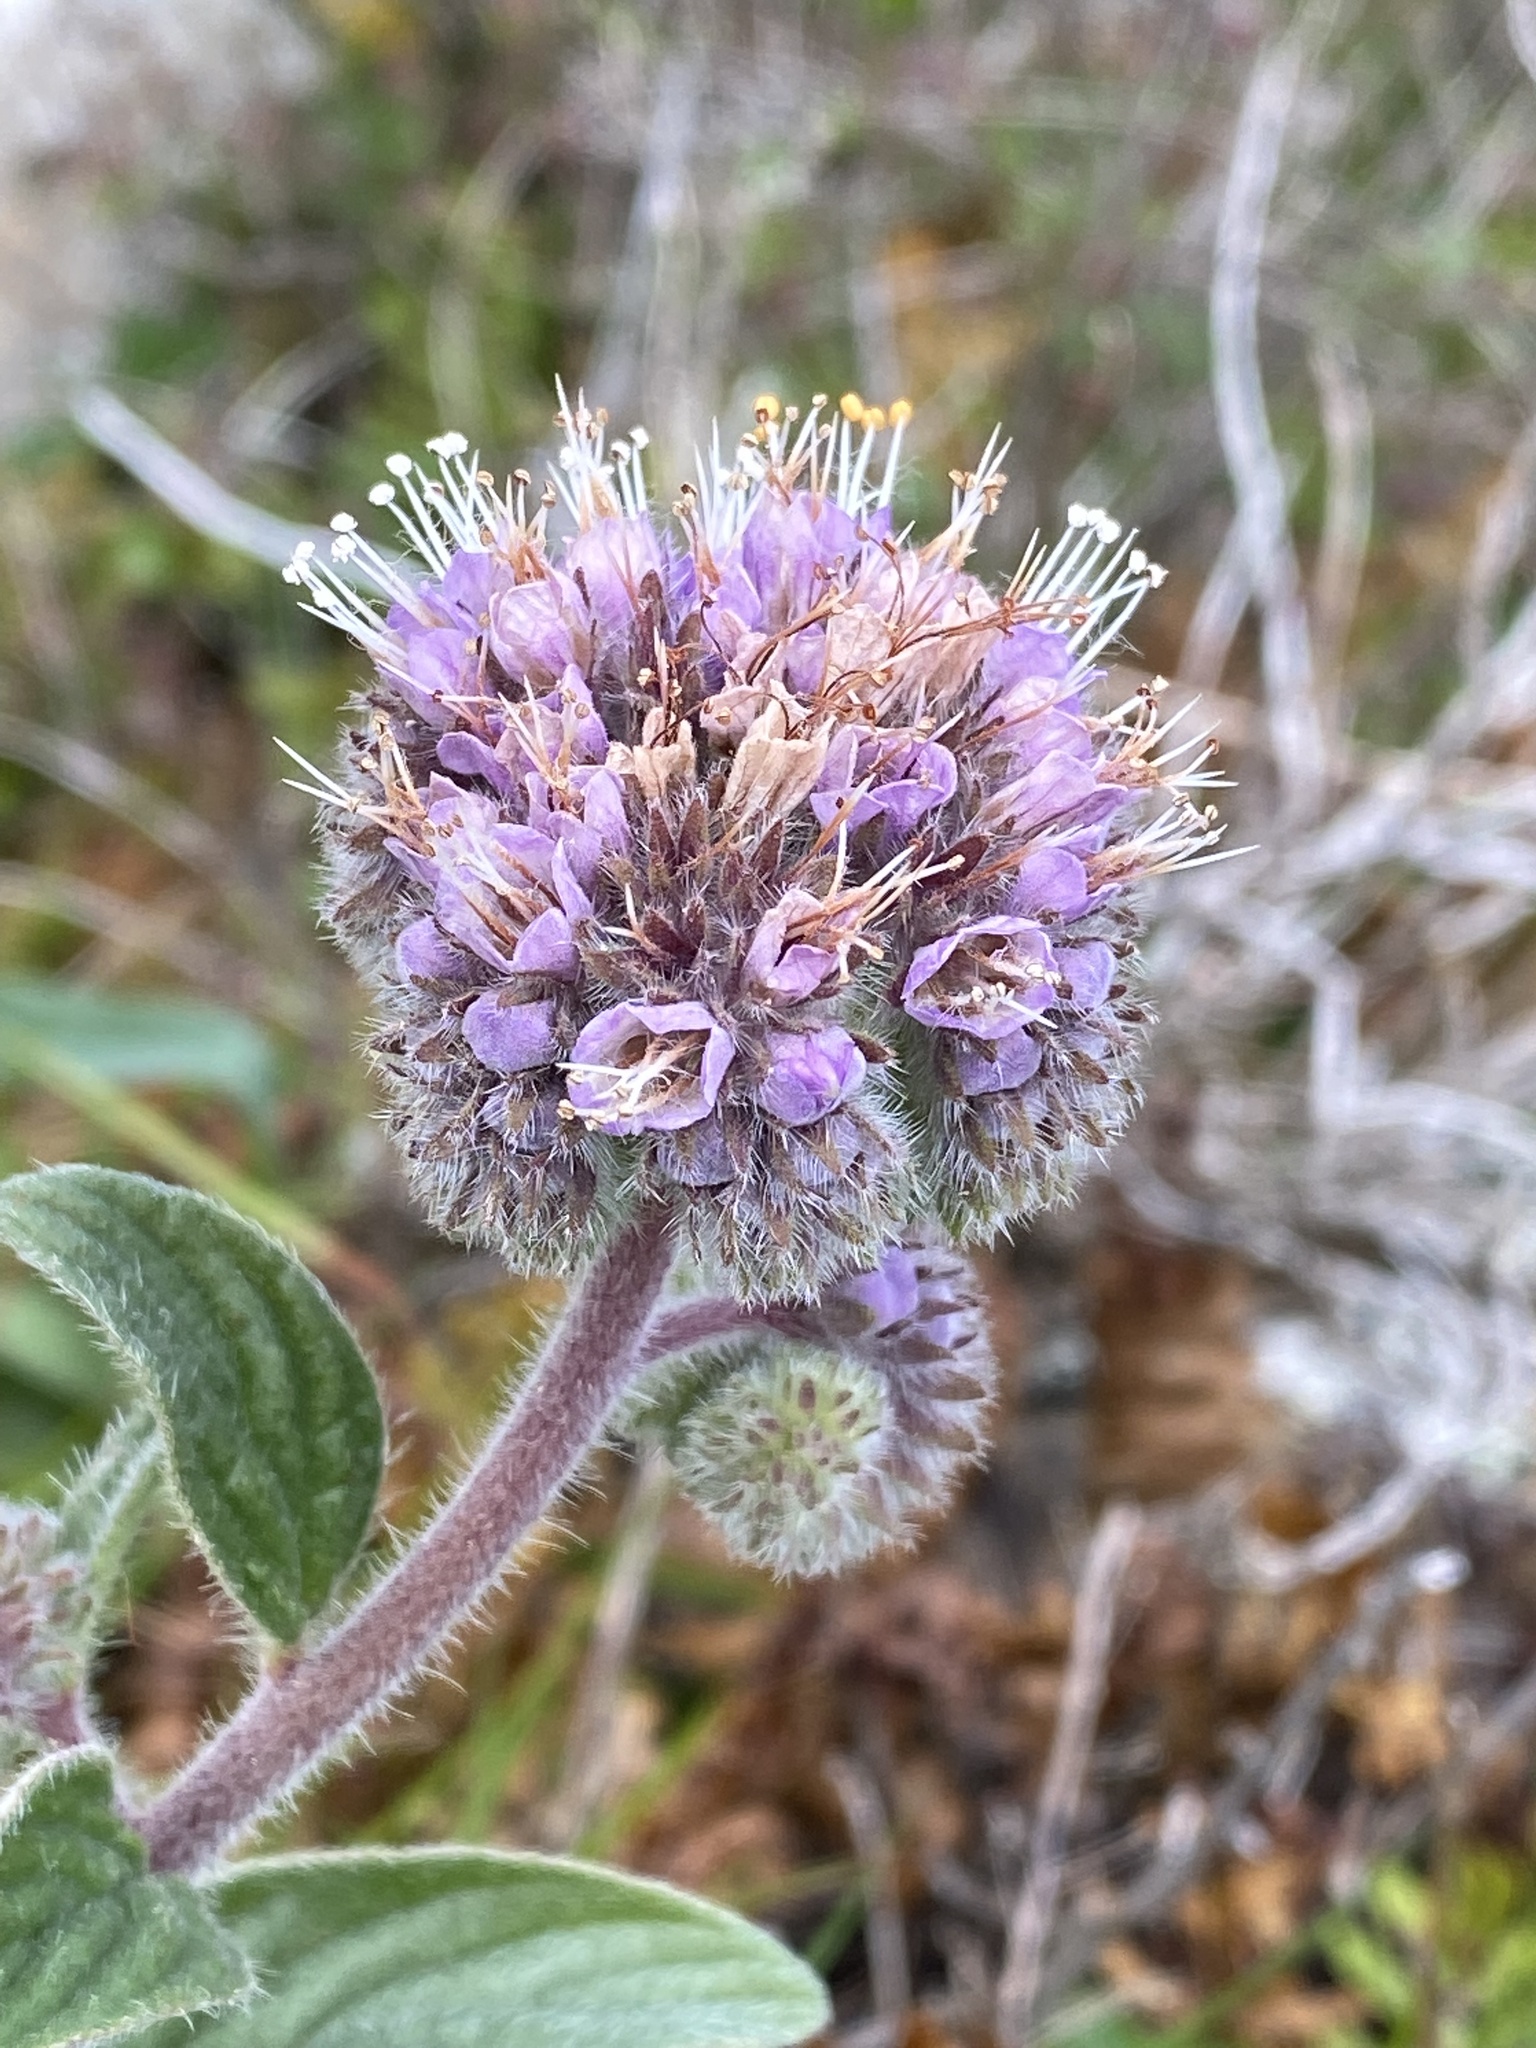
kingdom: Plantae
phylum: Tracheophyta
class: Magnoliopsida
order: Boraginales
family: Hydrophyllaceae
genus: Phacelia
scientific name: Phacelia californica
